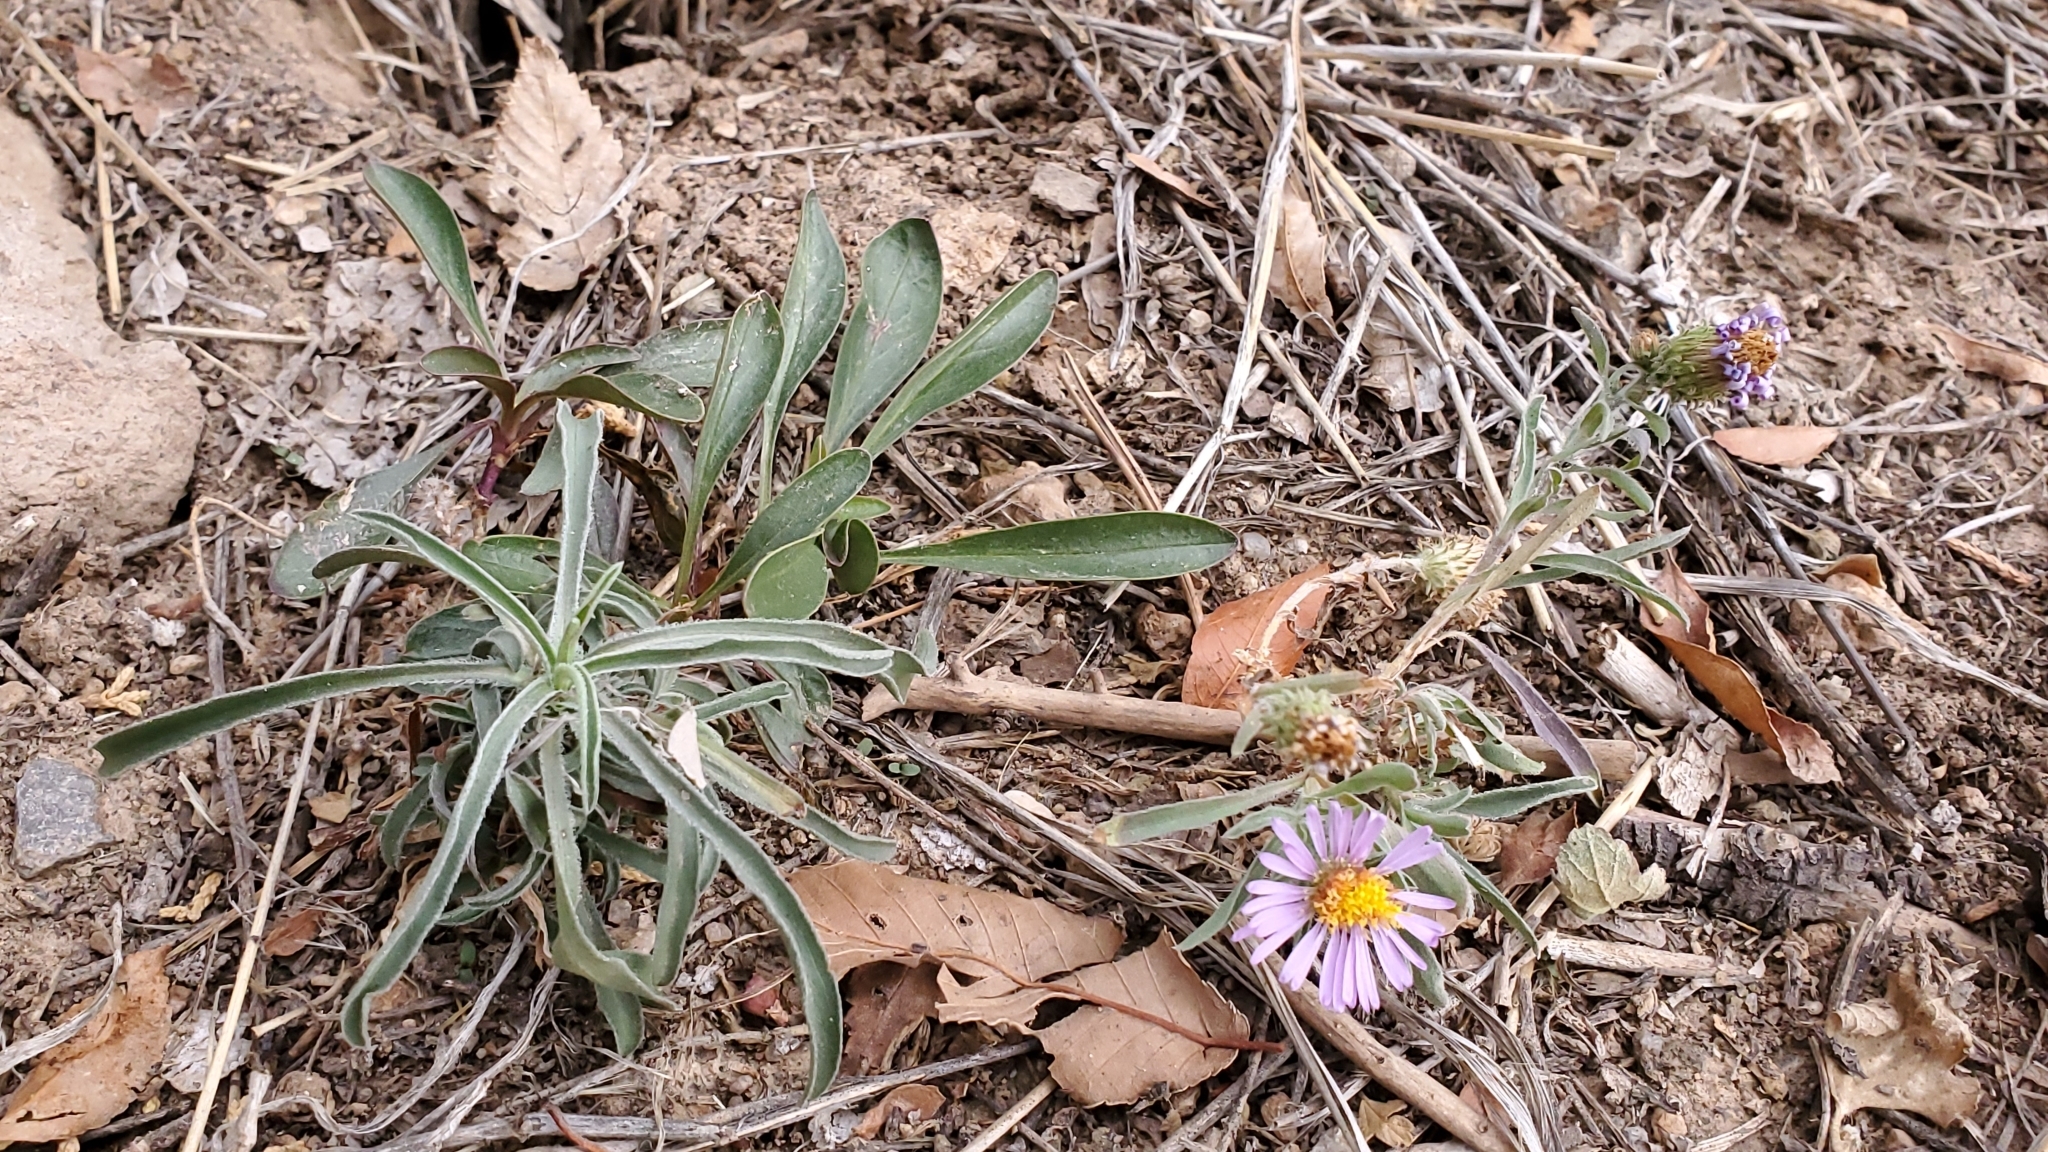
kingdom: Plantae
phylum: Tracheophyta
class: Magnoliopsida
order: Asterales
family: Asteraceae
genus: Dieteria
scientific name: Dieteria canescens
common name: Hoary-aster
